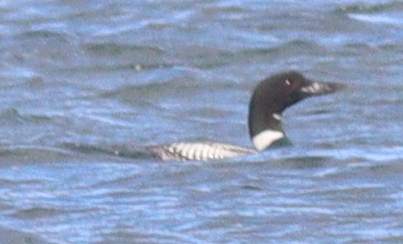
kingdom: Animalia
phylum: Chordata
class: Aves
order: Gaviiformes
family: Gaviidae
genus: Gavia
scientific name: Gavia immer
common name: Common loon
